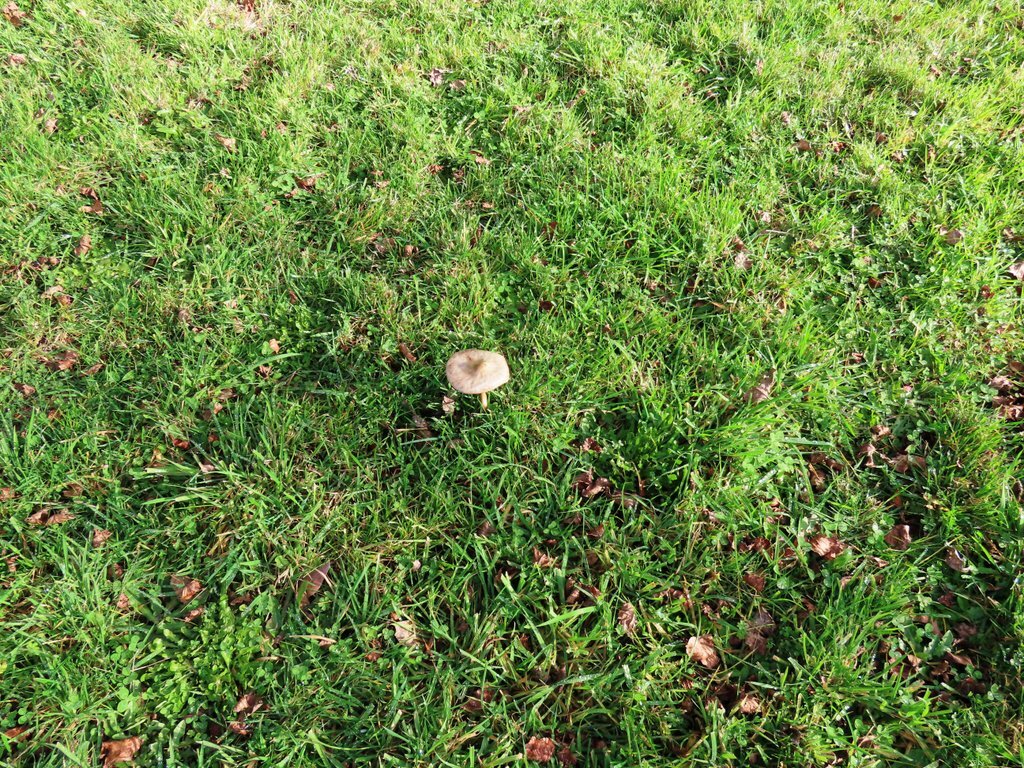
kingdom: Fungi
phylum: Basidiomycota
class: Agaricomycetes
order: Agaricales
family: Pluteaceae
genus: Volvopluteus
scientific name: Volvopluteus gloiocephalus
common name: Stubble rosegill
